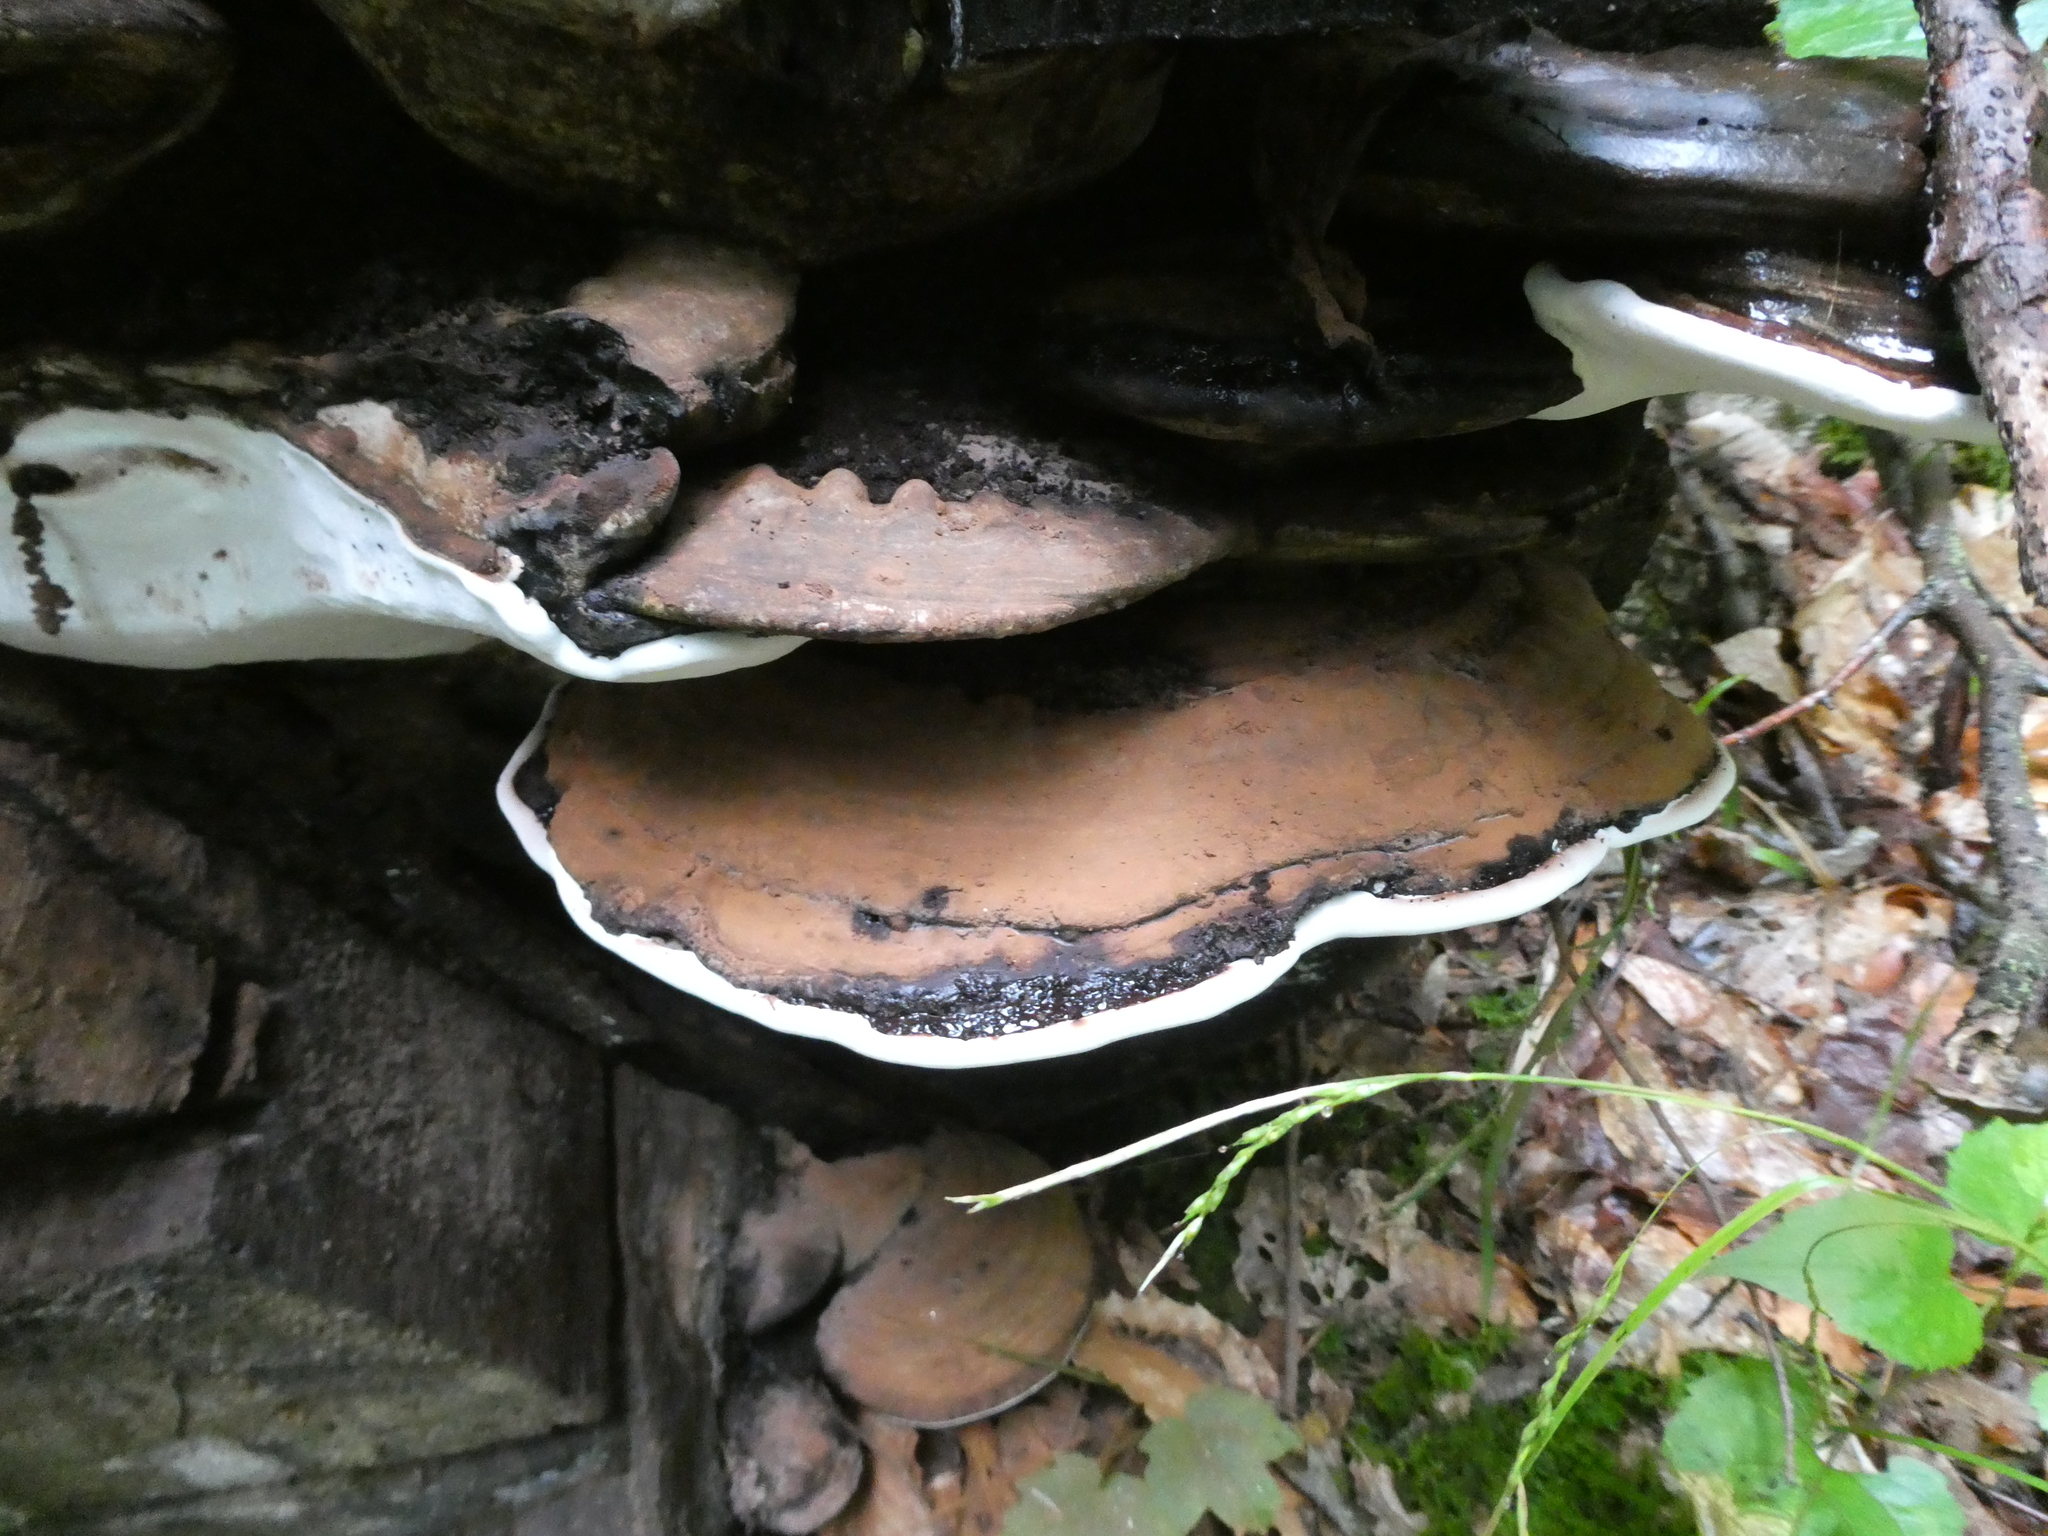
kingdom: Fungi
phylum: Basidiomycota
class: Agaricomycetes
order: Polyporales
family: Polyporaceae
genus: Ganoderma
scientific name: Ganoderma applanatum
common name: Artist's bracket
